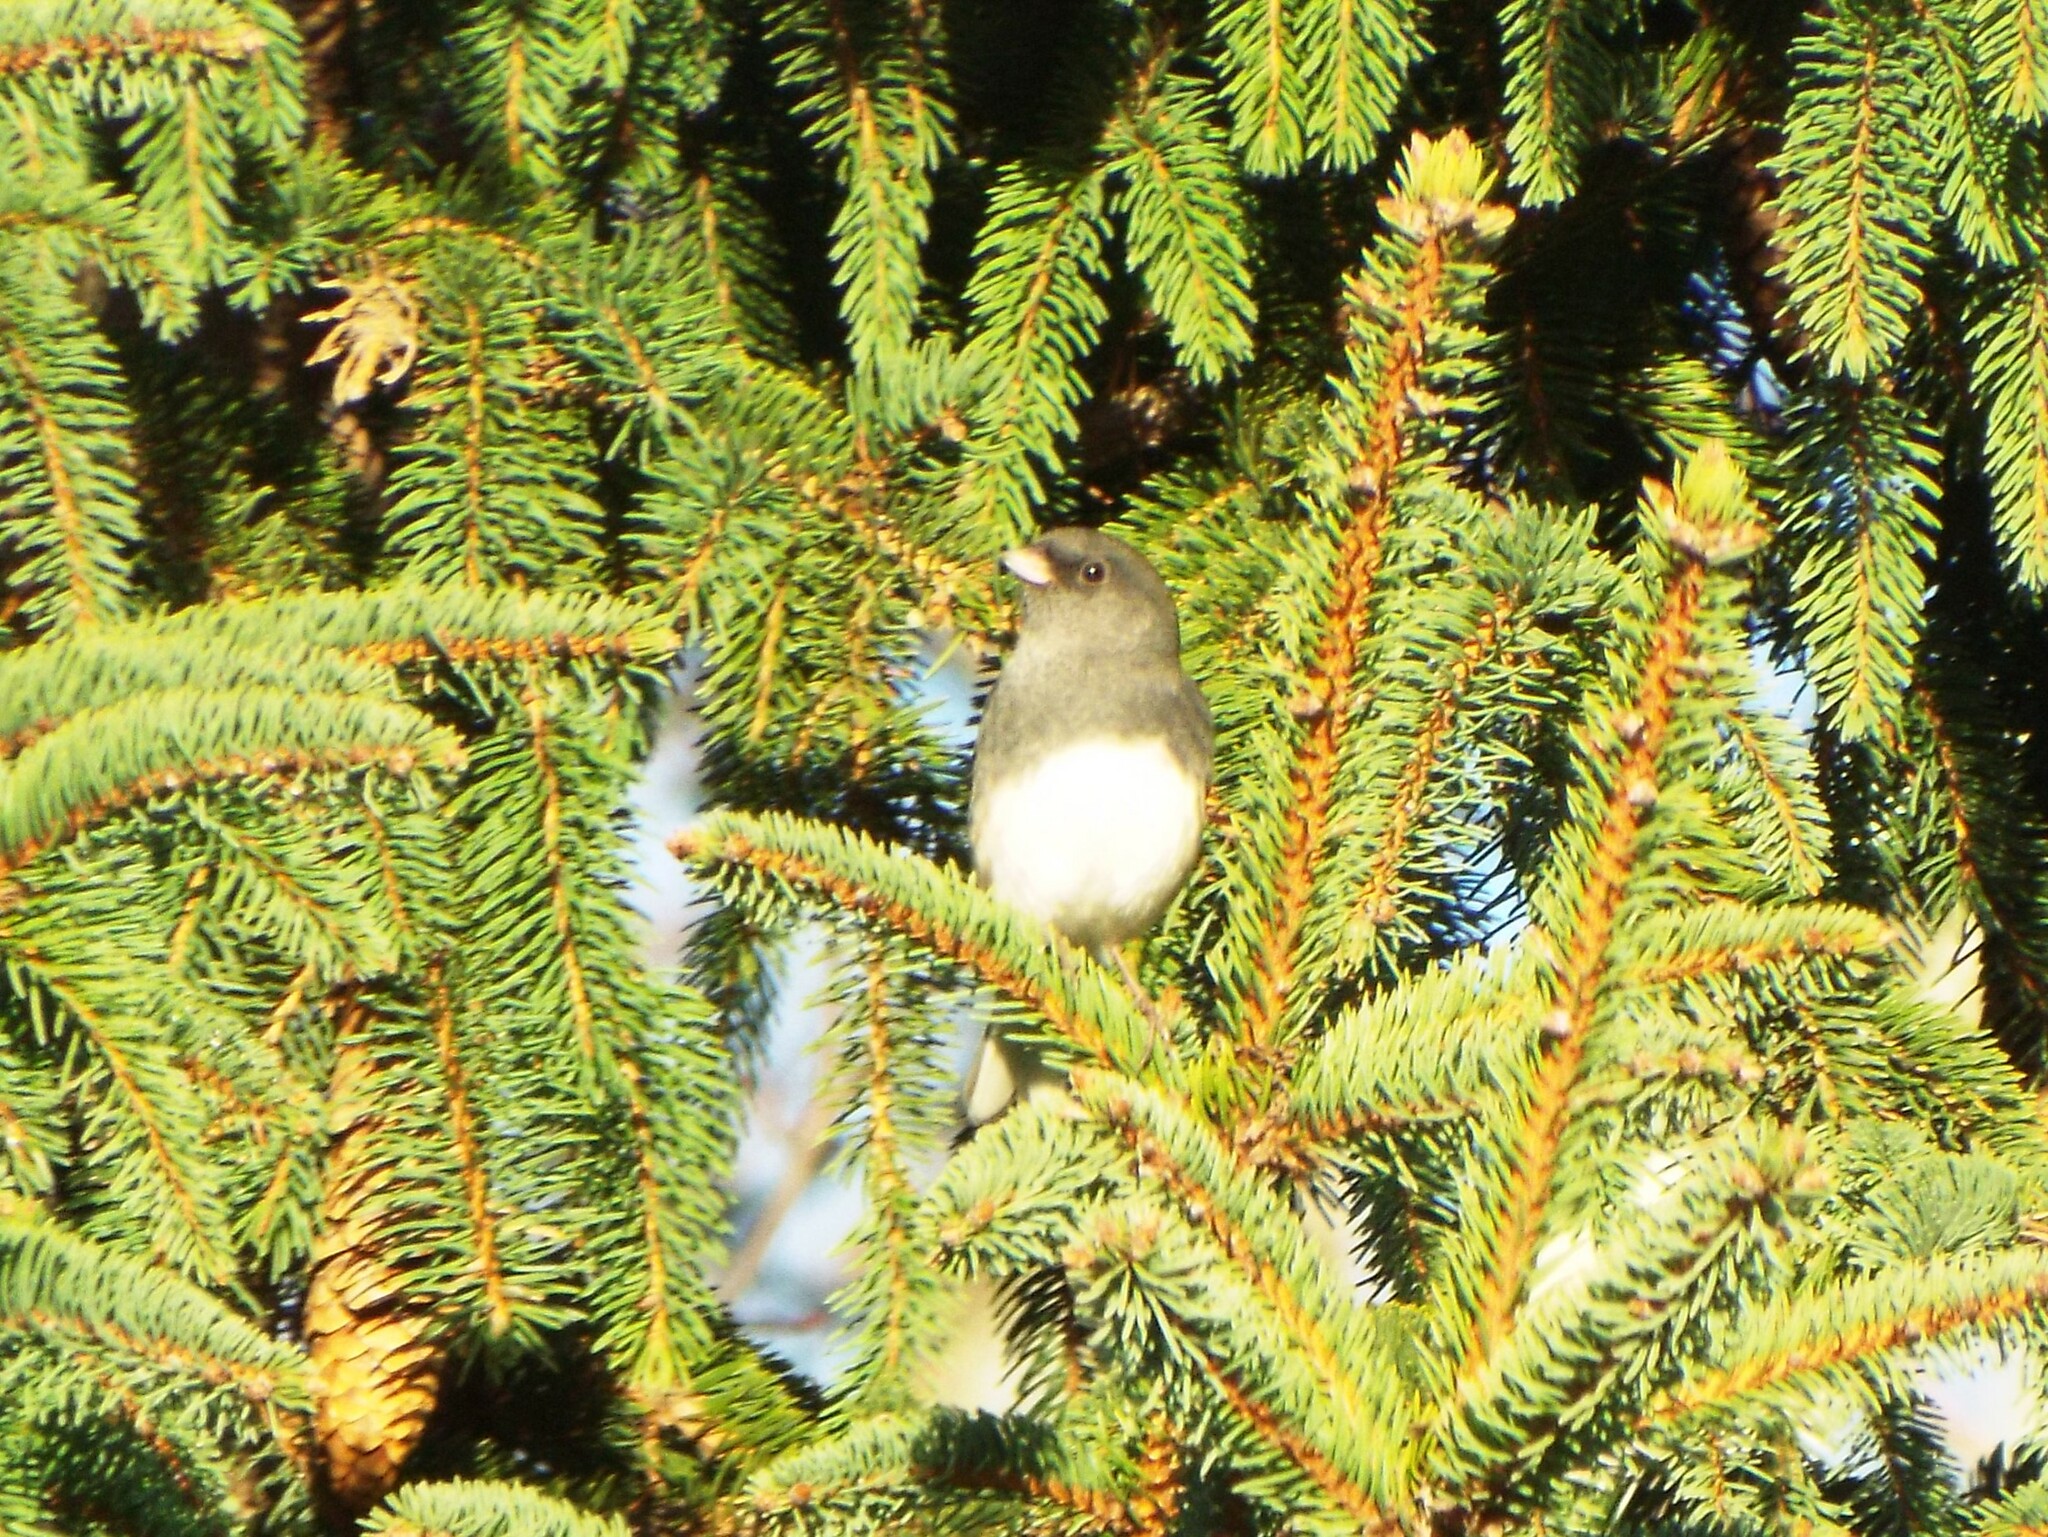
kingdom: Animalia
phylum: Chordata
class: Aves
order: Passeriformes
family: Passerellidae
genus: Junco
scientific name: Junco hyemalis
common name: Dark-eyed junco
